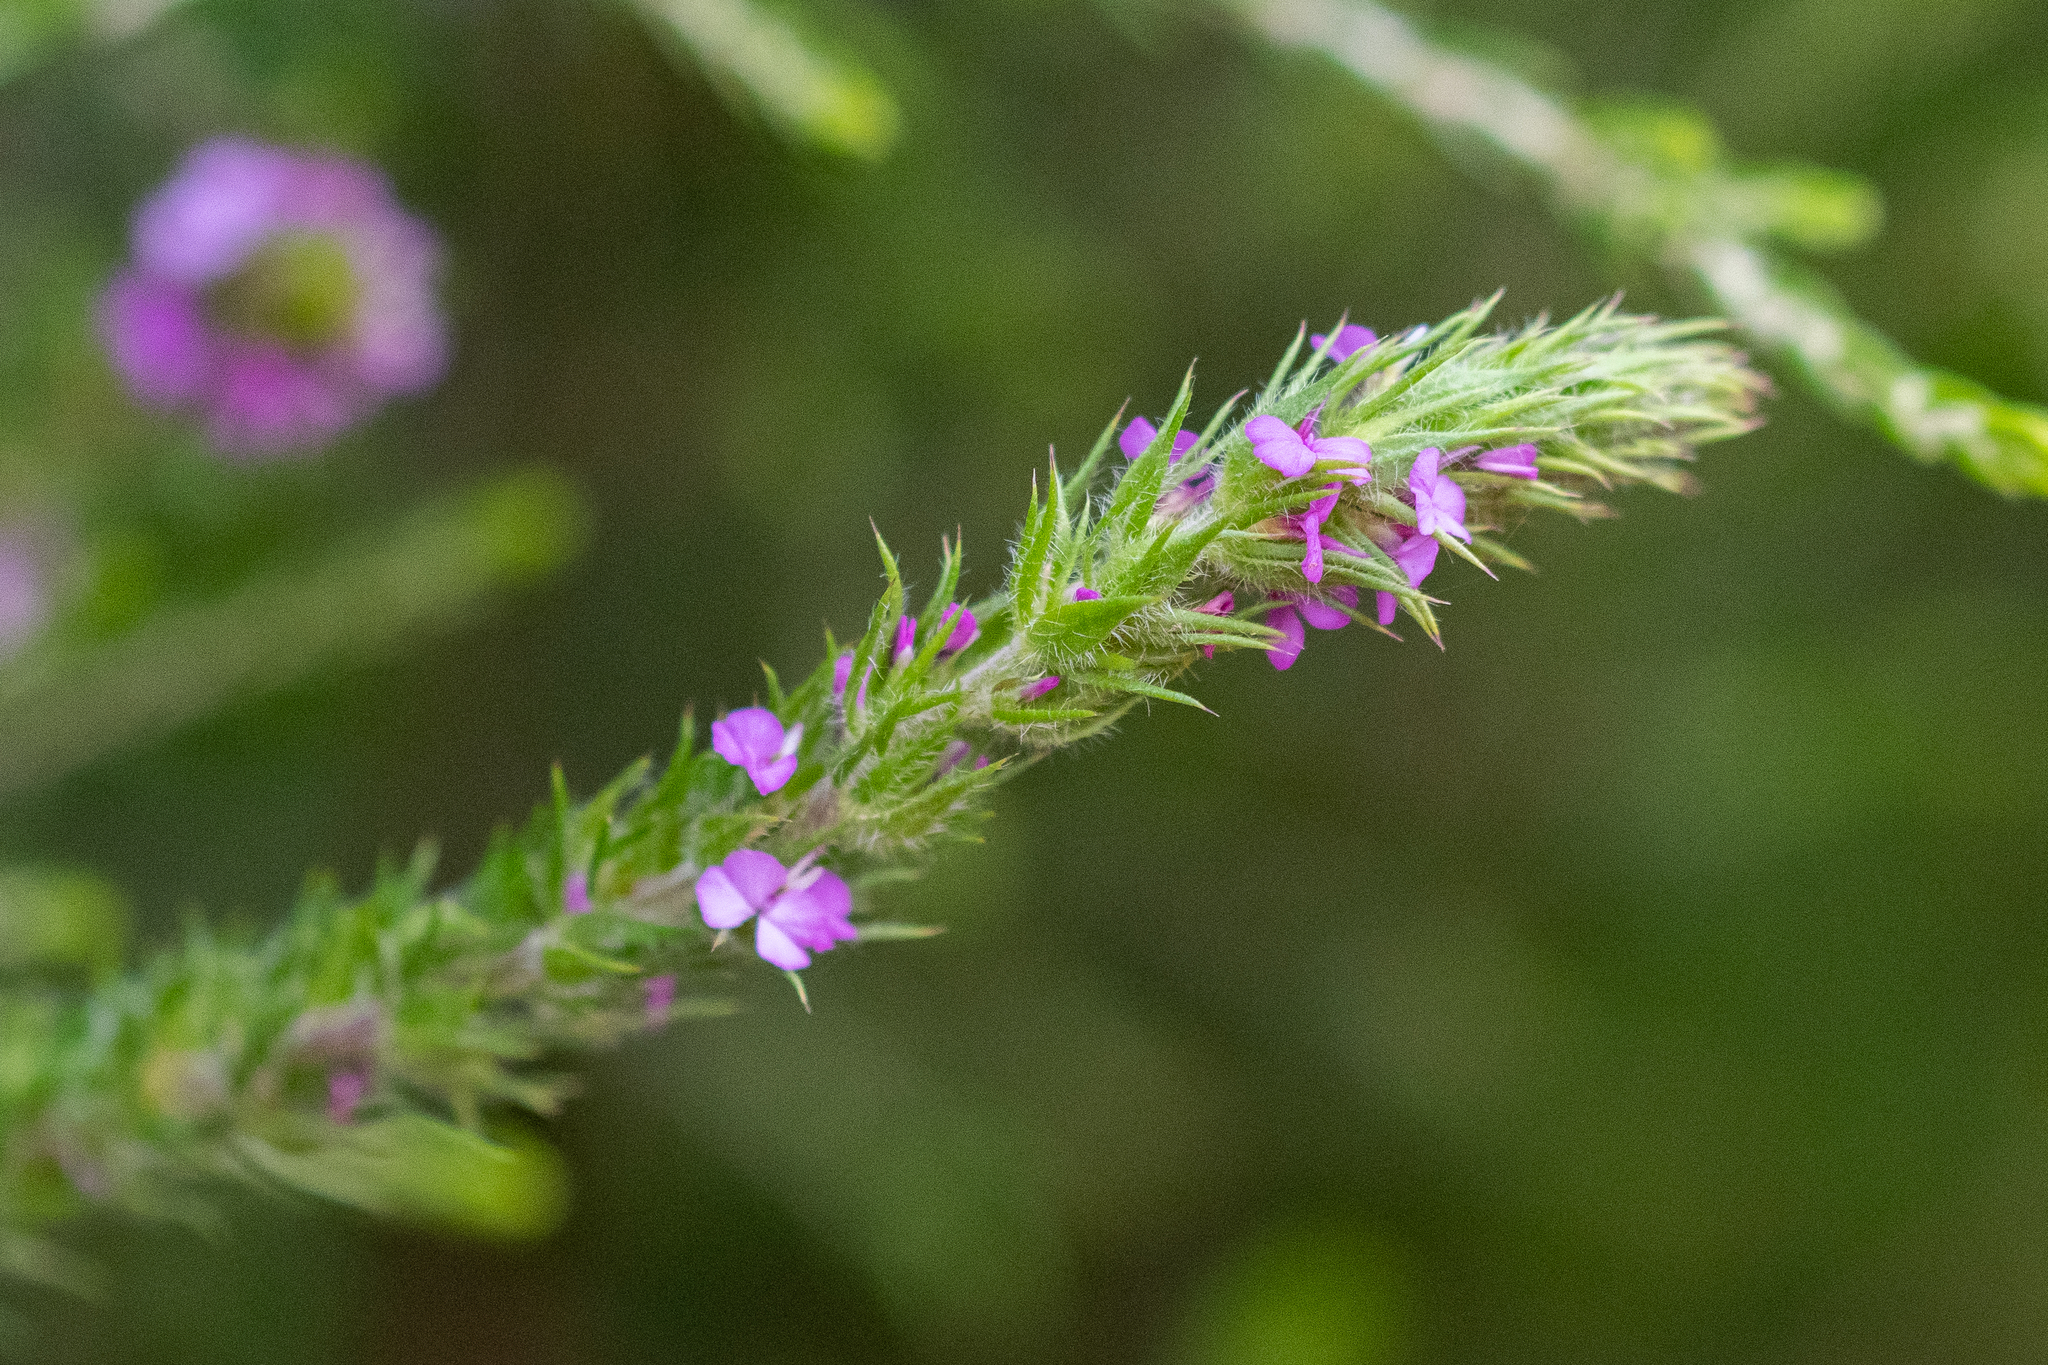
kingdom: Plantae
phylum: Tracheophyta
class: Magnoliopsida
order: Fabales
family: Polygalaceae
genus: Muraltia
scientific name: Muraltia vulpina
